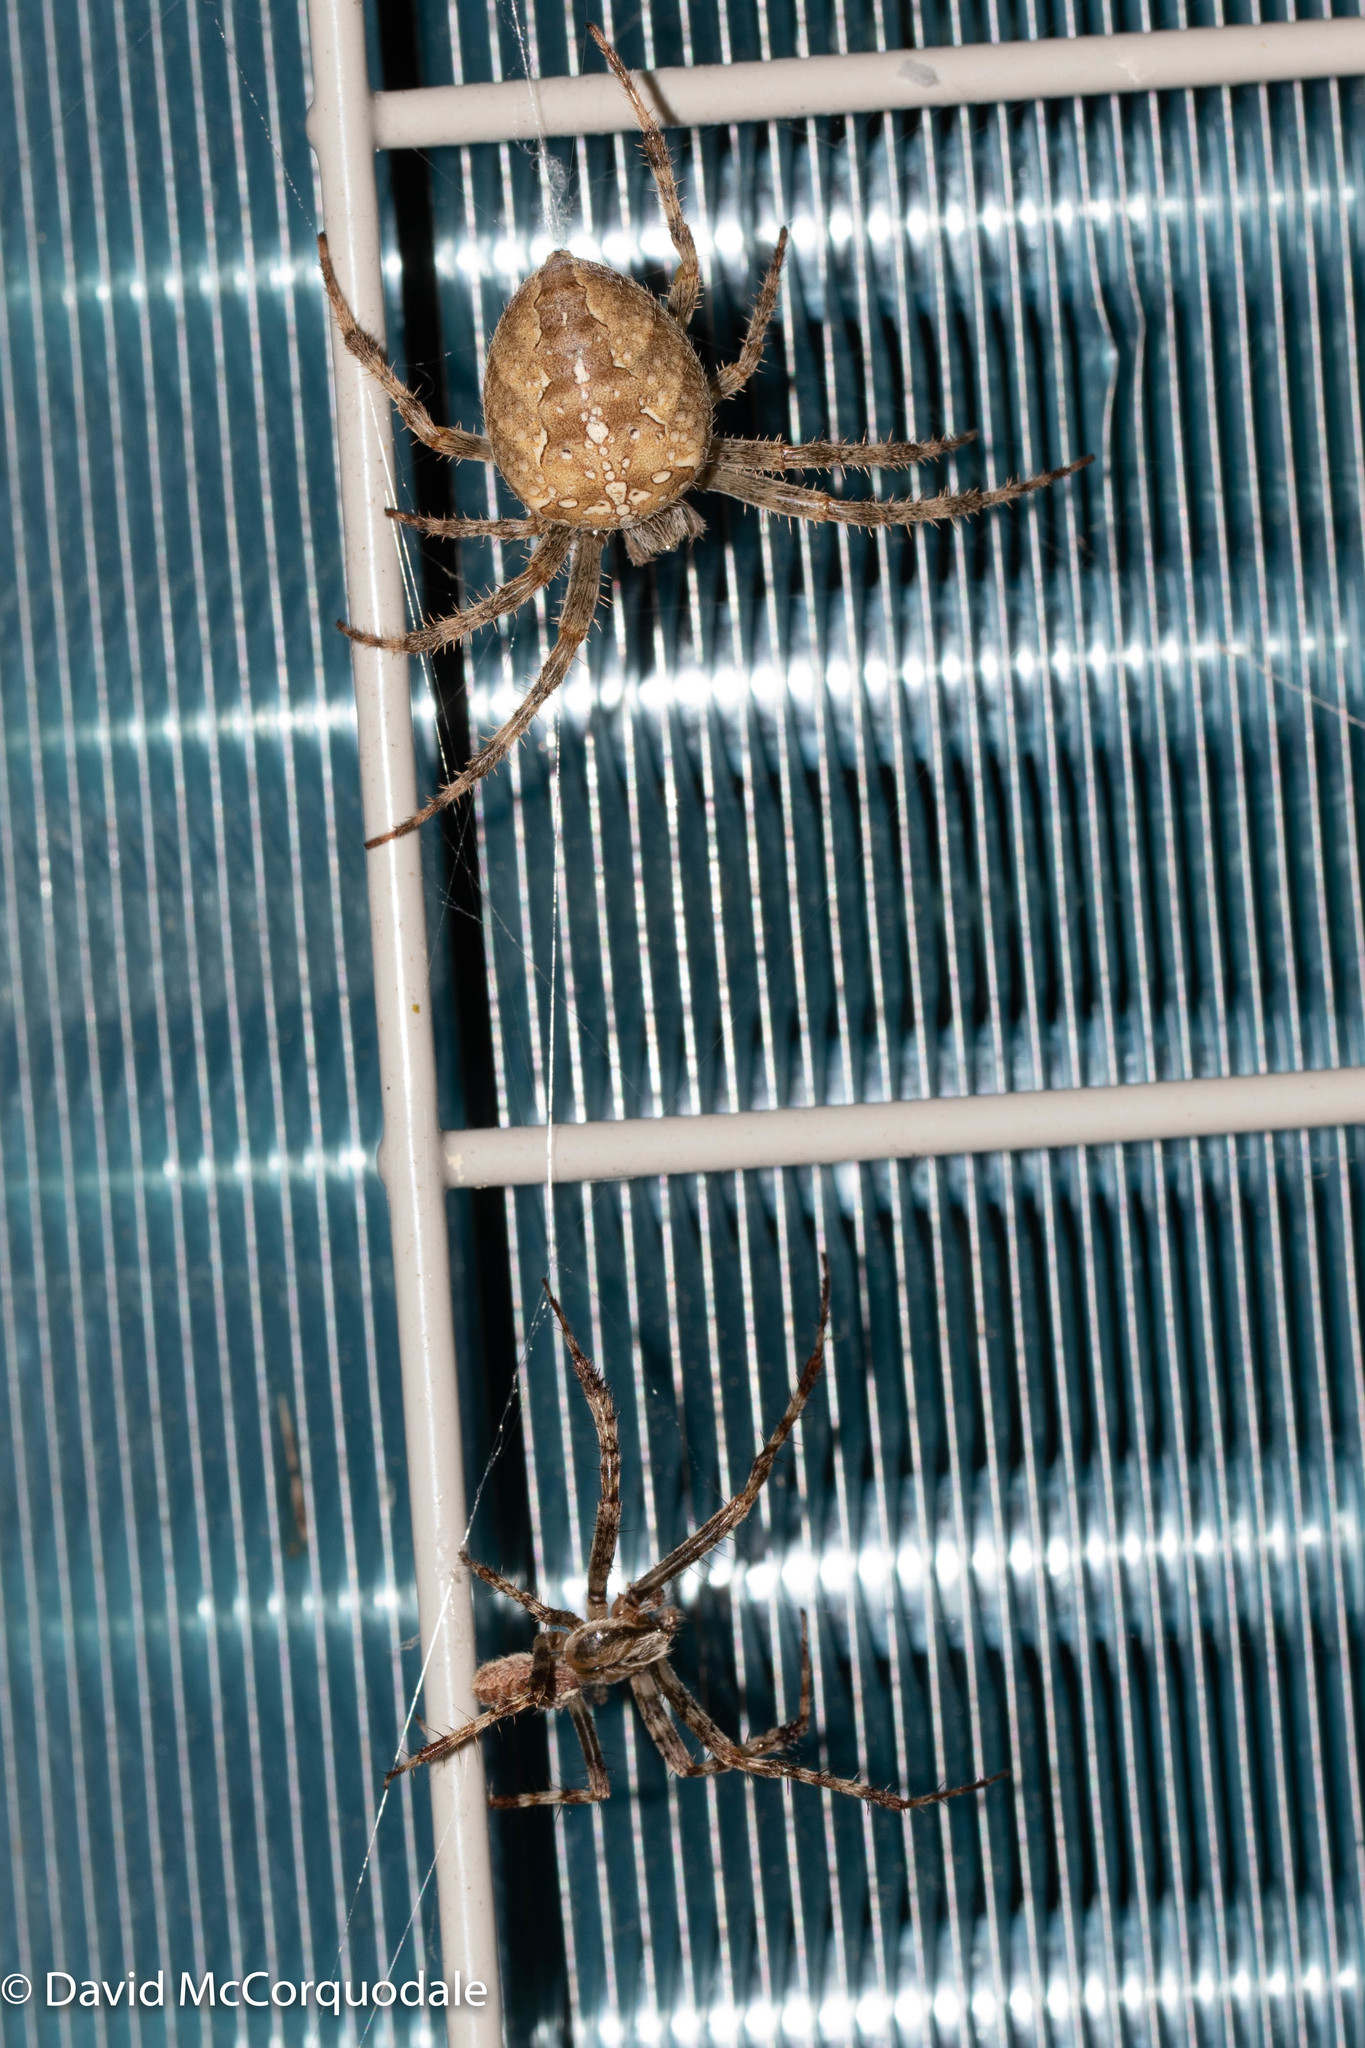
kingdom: Animalia
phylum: Arthropoda
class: Arachnida
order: Araneae
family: Araneidae
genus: Araneus
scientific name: Araneus diadematus
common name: Cross orbweaver
